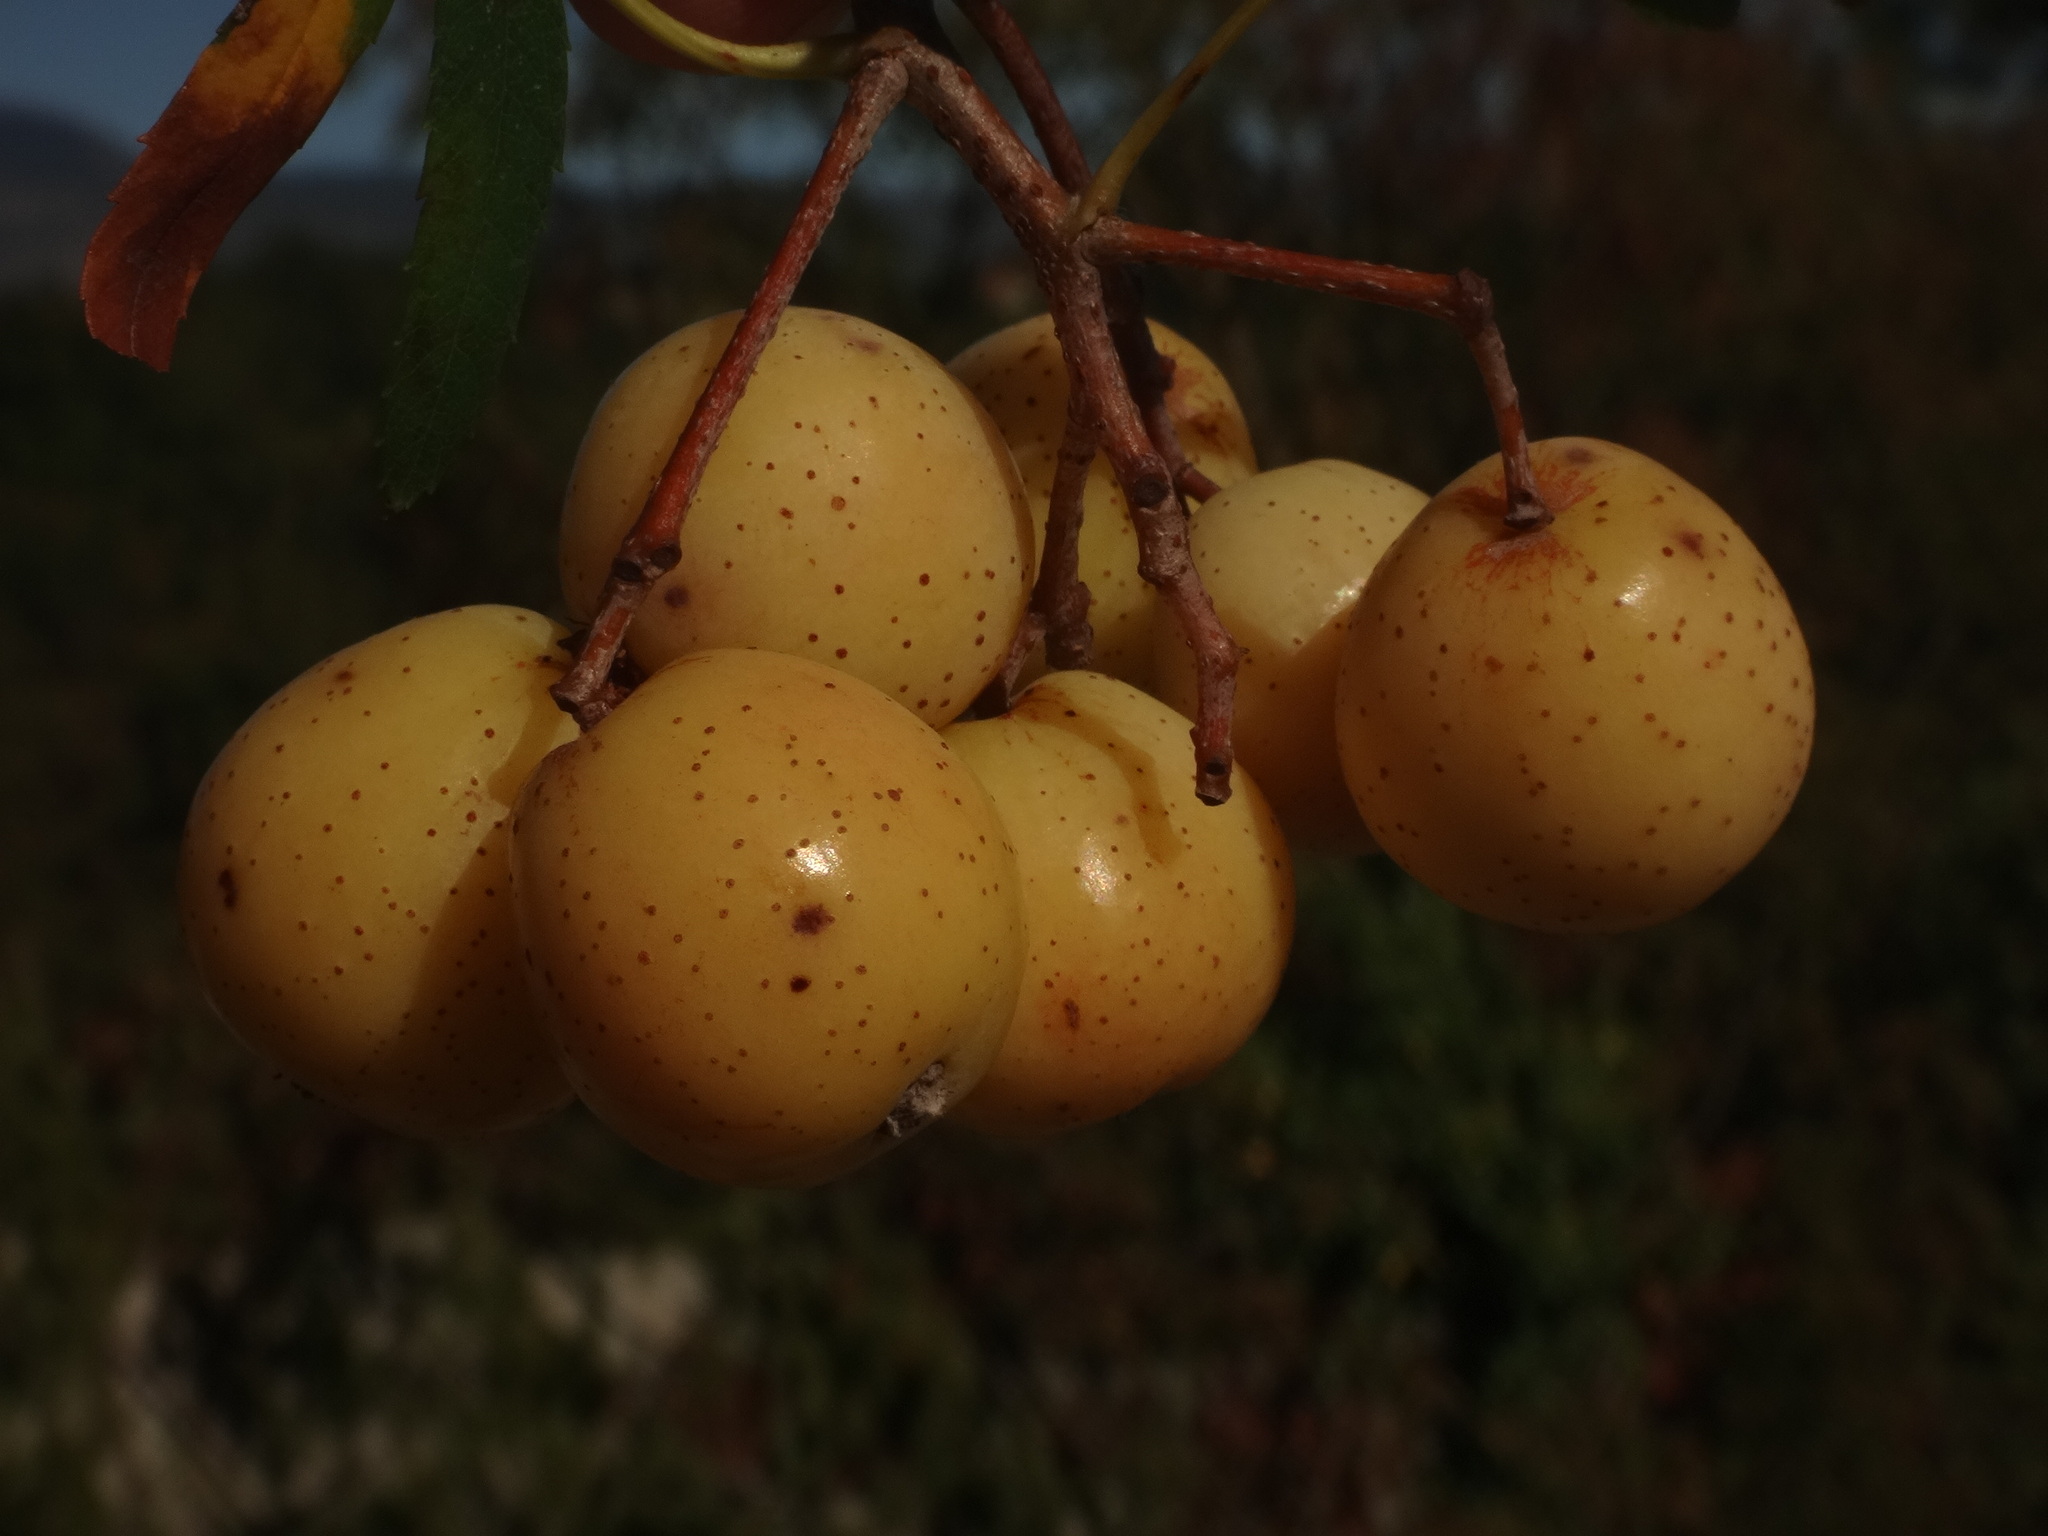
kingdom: Plantae
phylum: Tracheophyta
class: Magnoliopsida
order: Rosales
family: Rosaceae
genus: Cormus
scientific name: Cormus domestica
